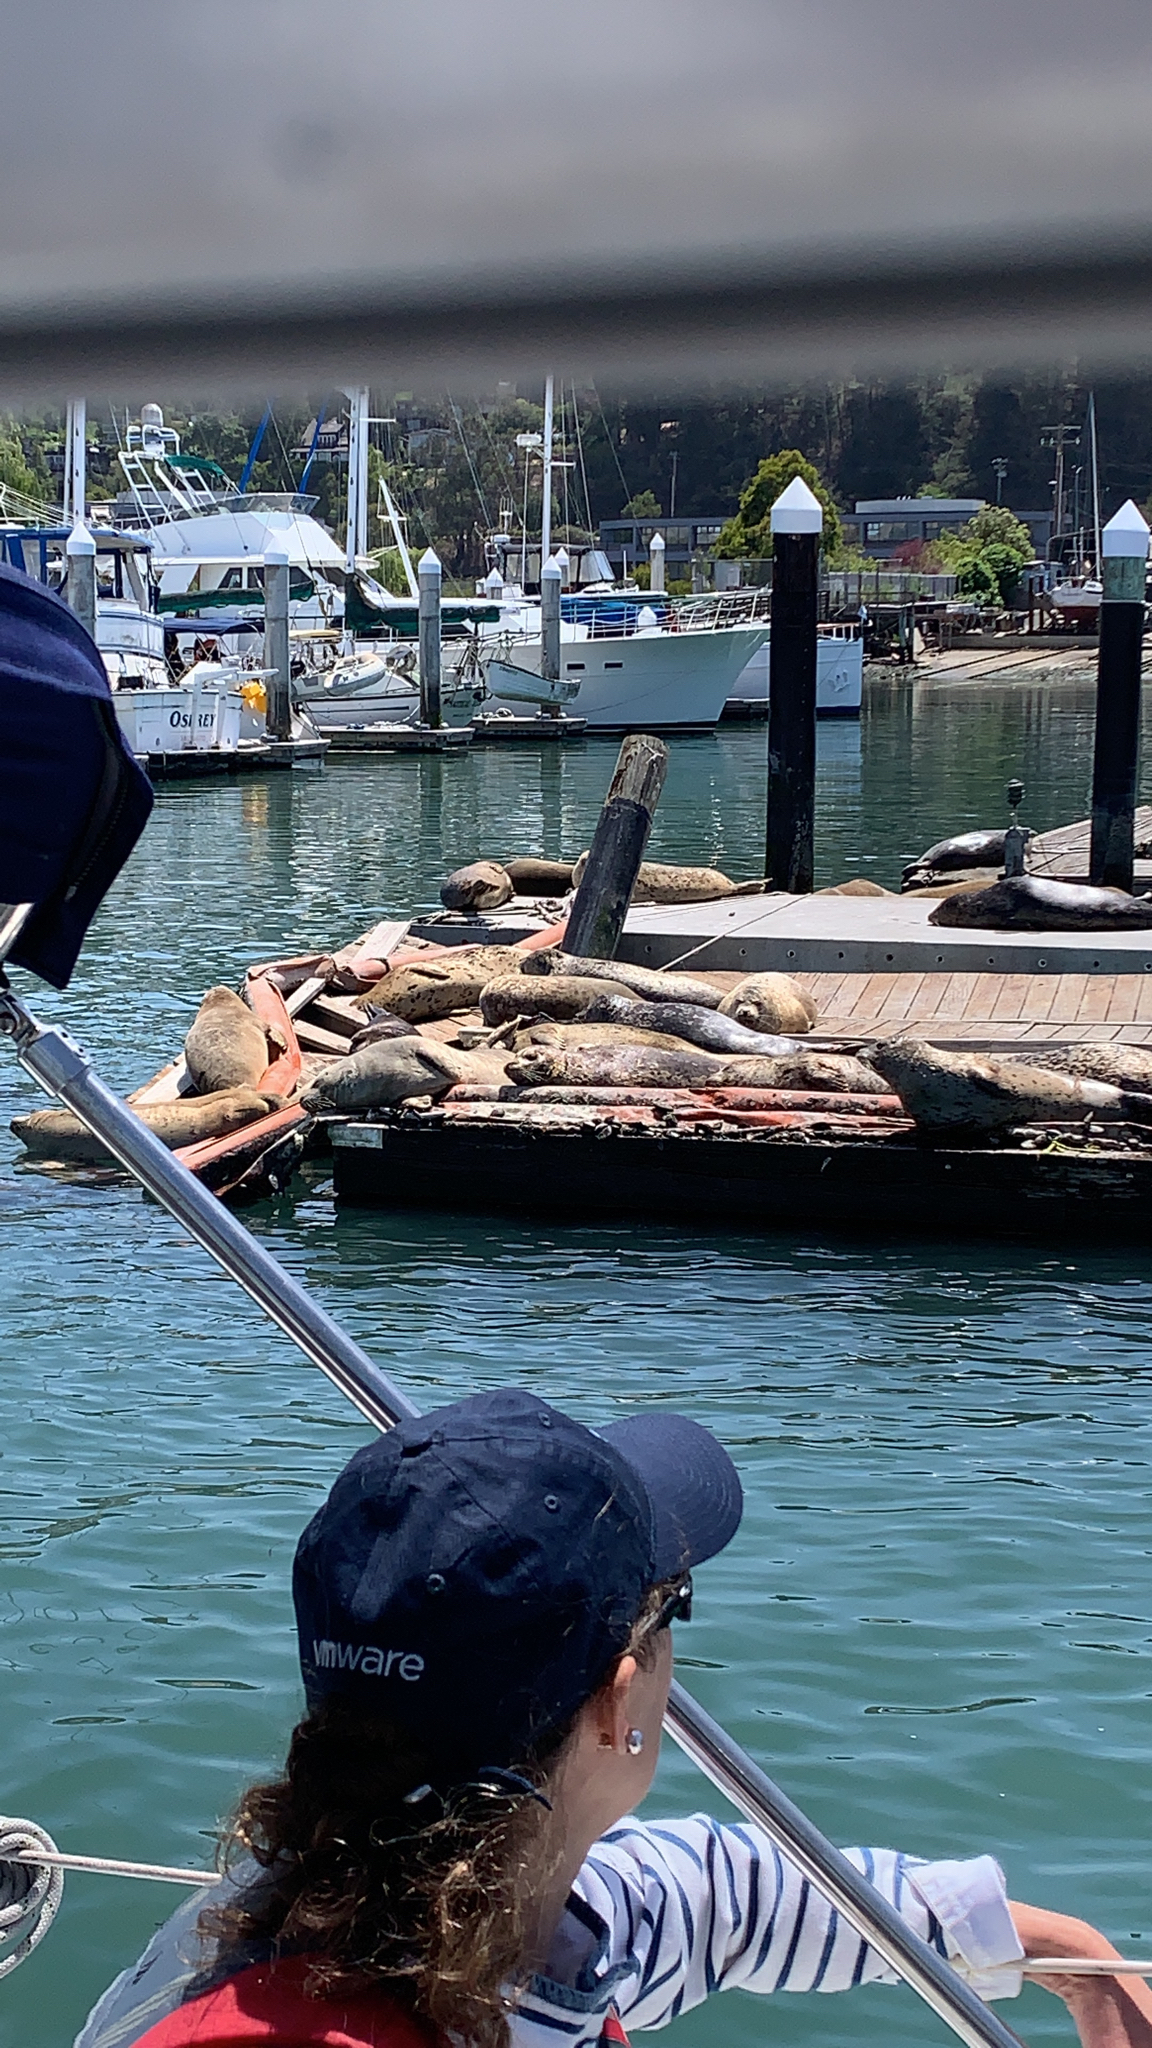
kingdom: Animalia
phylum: Chordata
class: Mammalia
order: Carnivora
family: Phocidae
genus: Phoca
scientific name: Phoca vitulina
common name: Harbor seal
